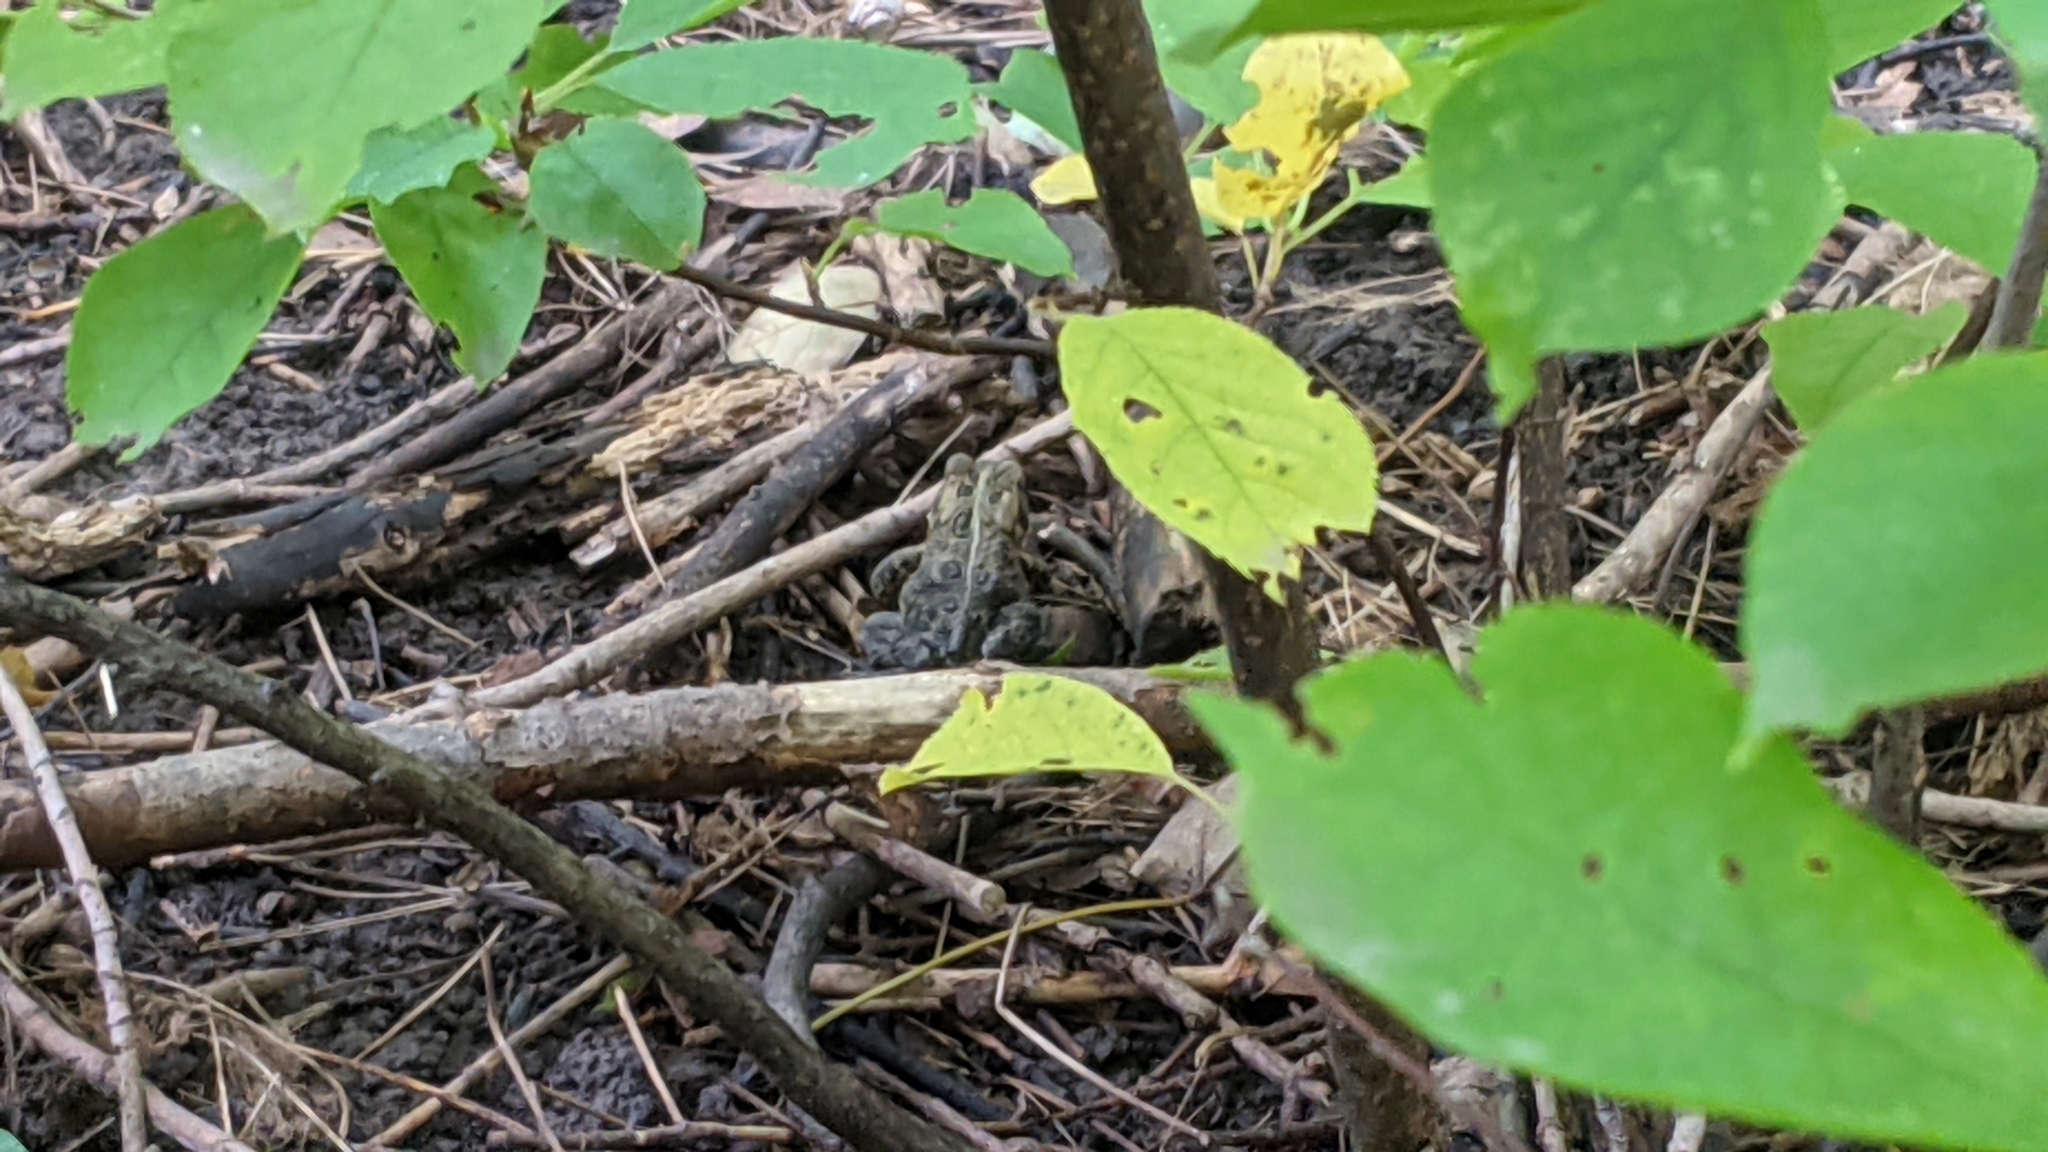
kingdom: Animalia
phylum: Chordata
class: Amphibia
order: Anura
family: Bufonidae
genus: Anaxyrus
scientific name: Anaxyrus americanus
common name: American toad
